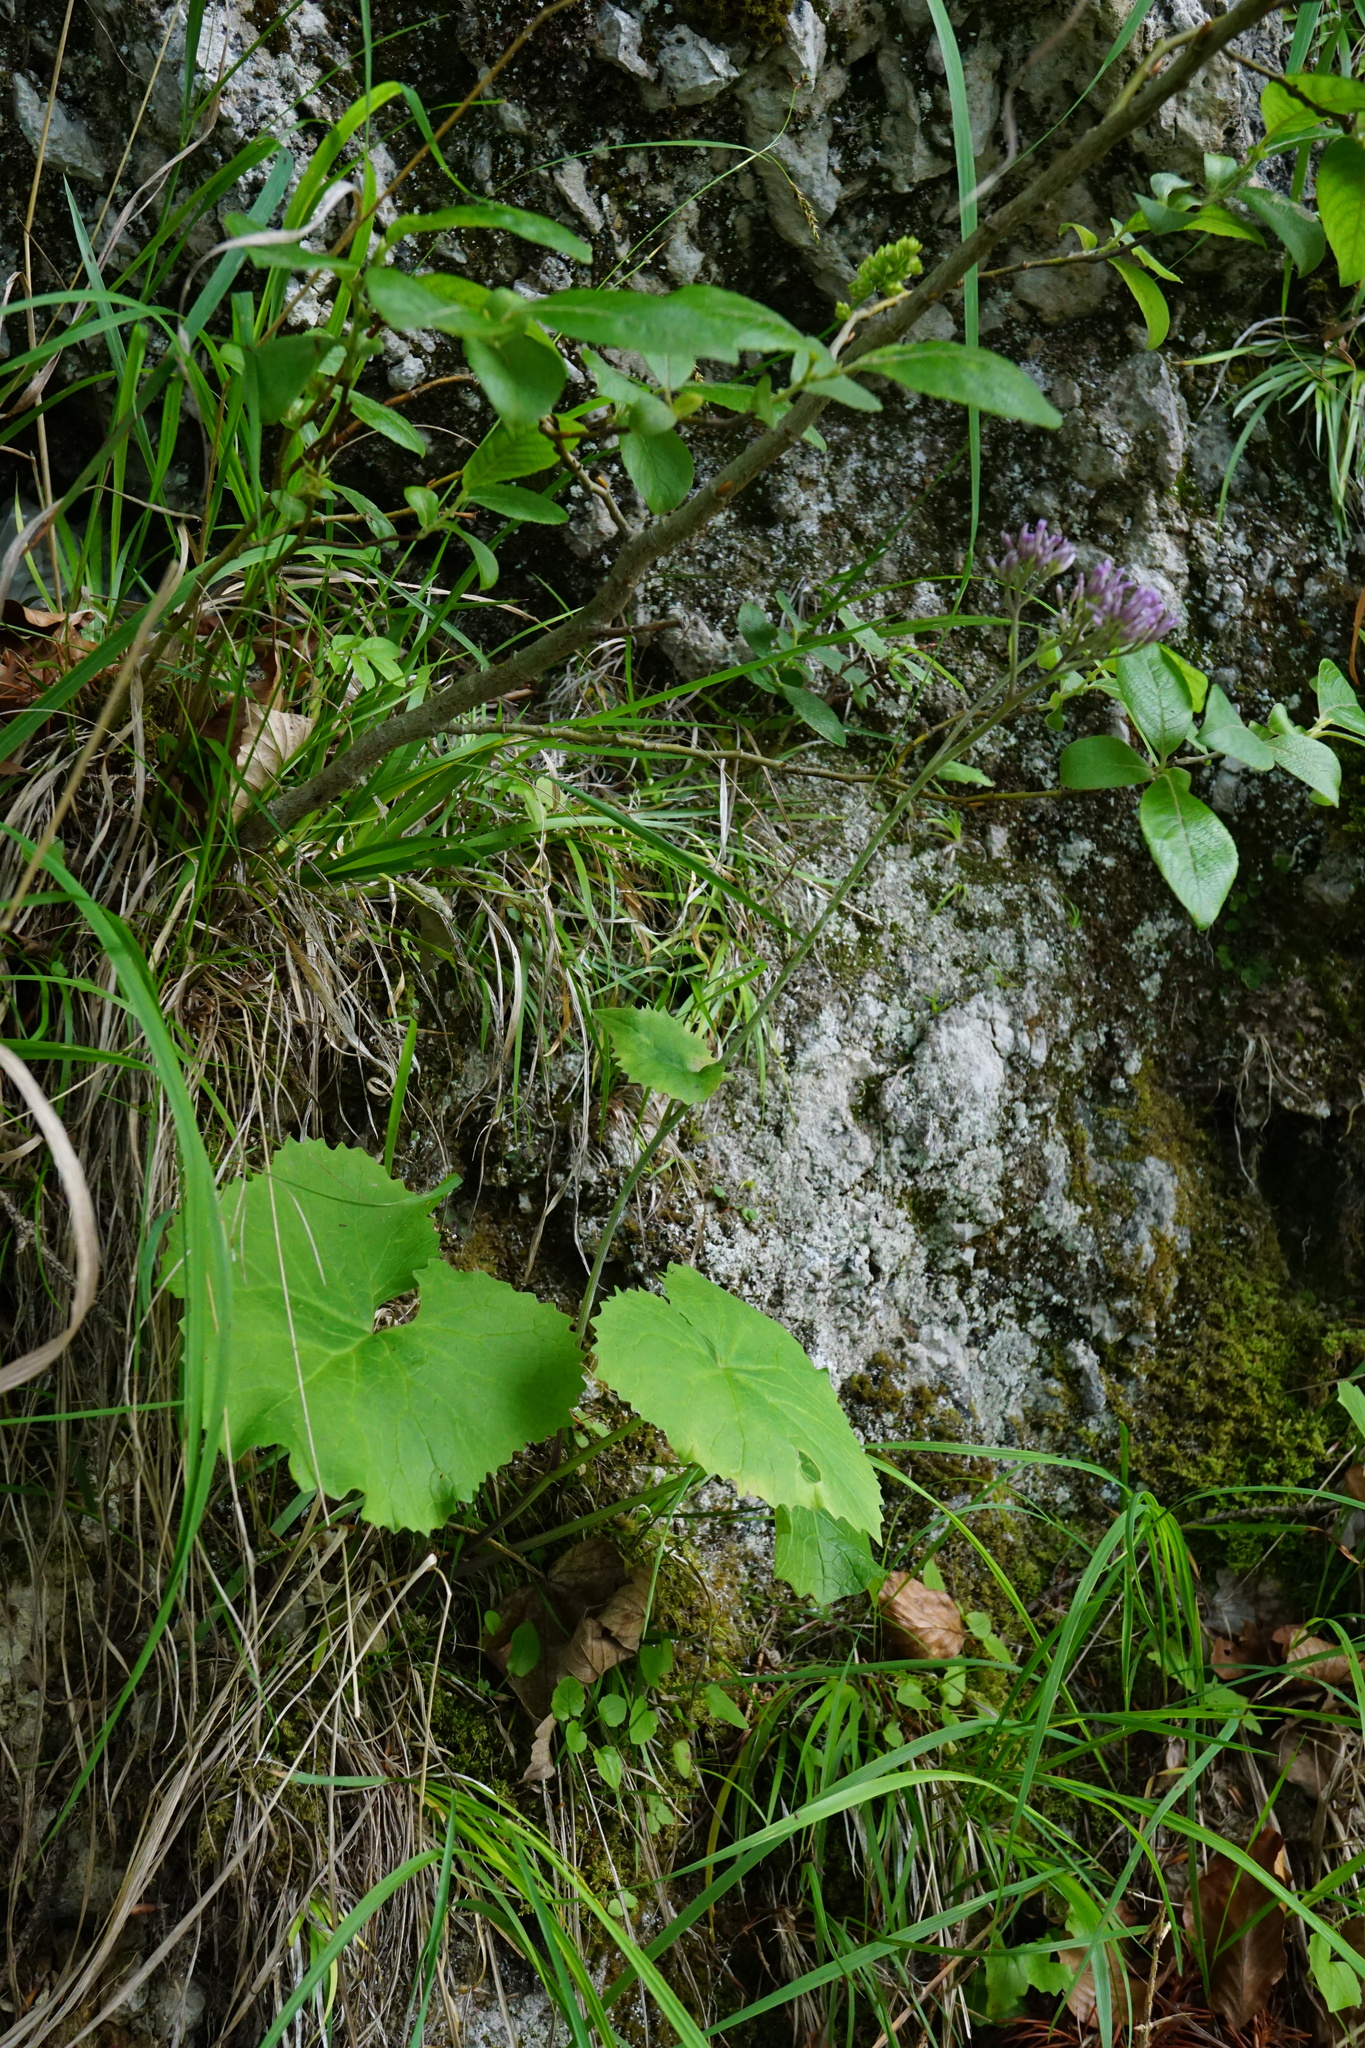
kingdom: Plantae
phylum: Tracheophyta
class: Magnoliopsida
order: Asterales
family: Asteraceae
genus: Adenostyles
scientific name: Adenostyles alpina
